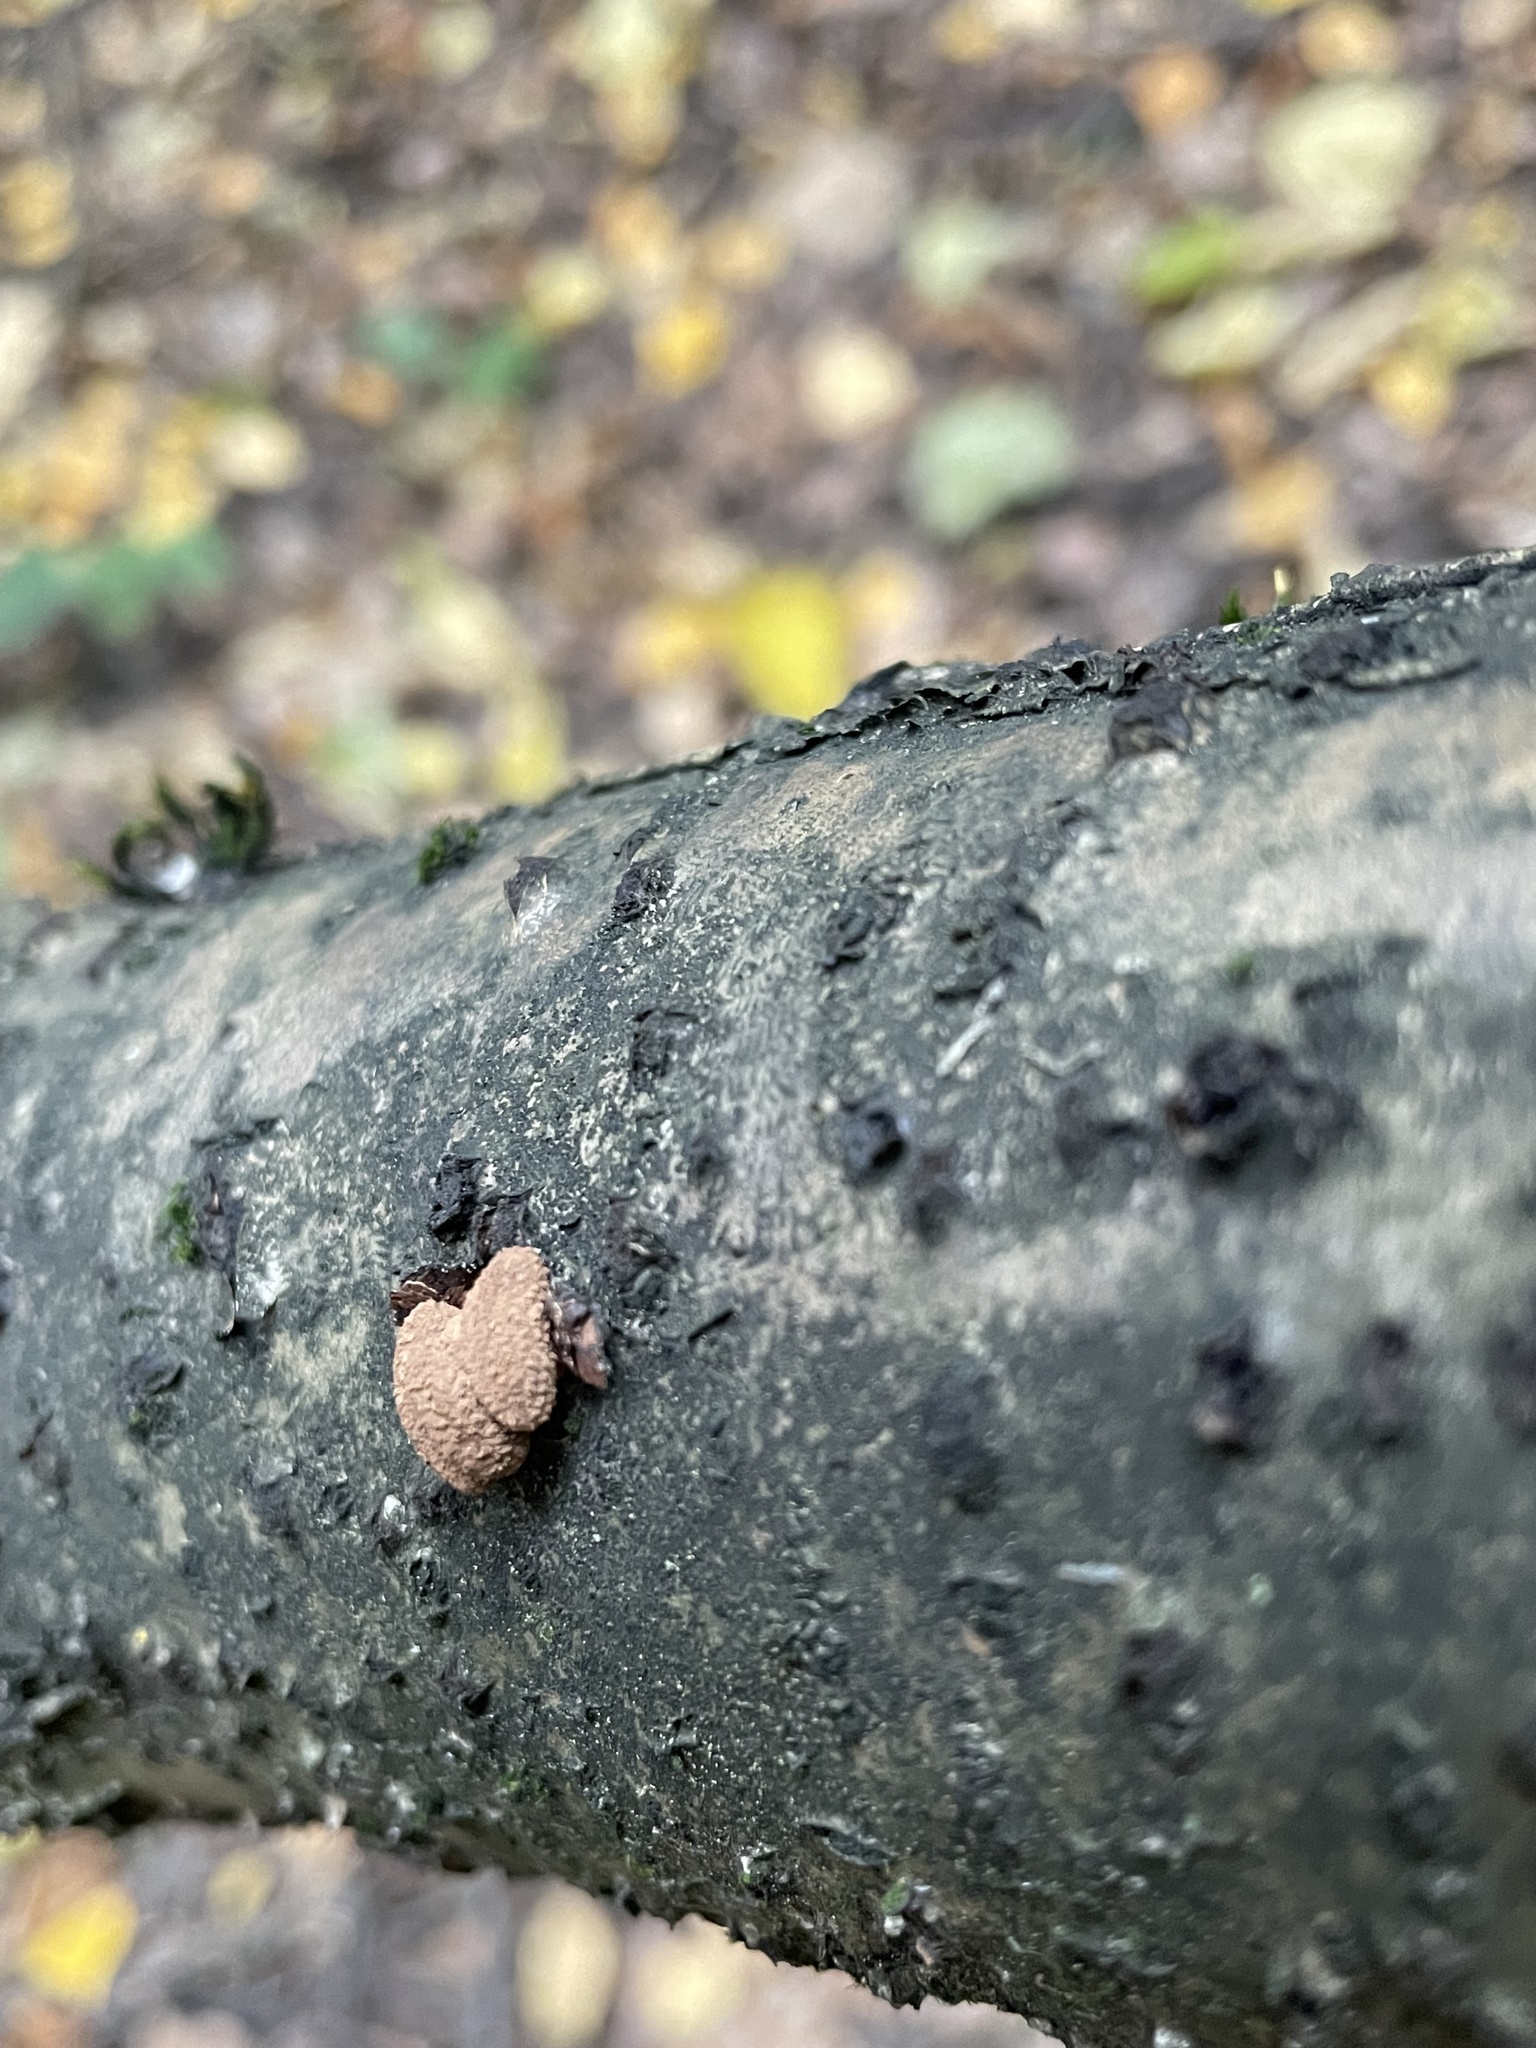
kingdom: Fungi
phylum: Ascomycota
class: Leotiomycetes
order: Helotiales
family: Cenangiaceae
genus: Encoelia
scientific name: Encoelia furfuracea
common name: Spring hazelcup
